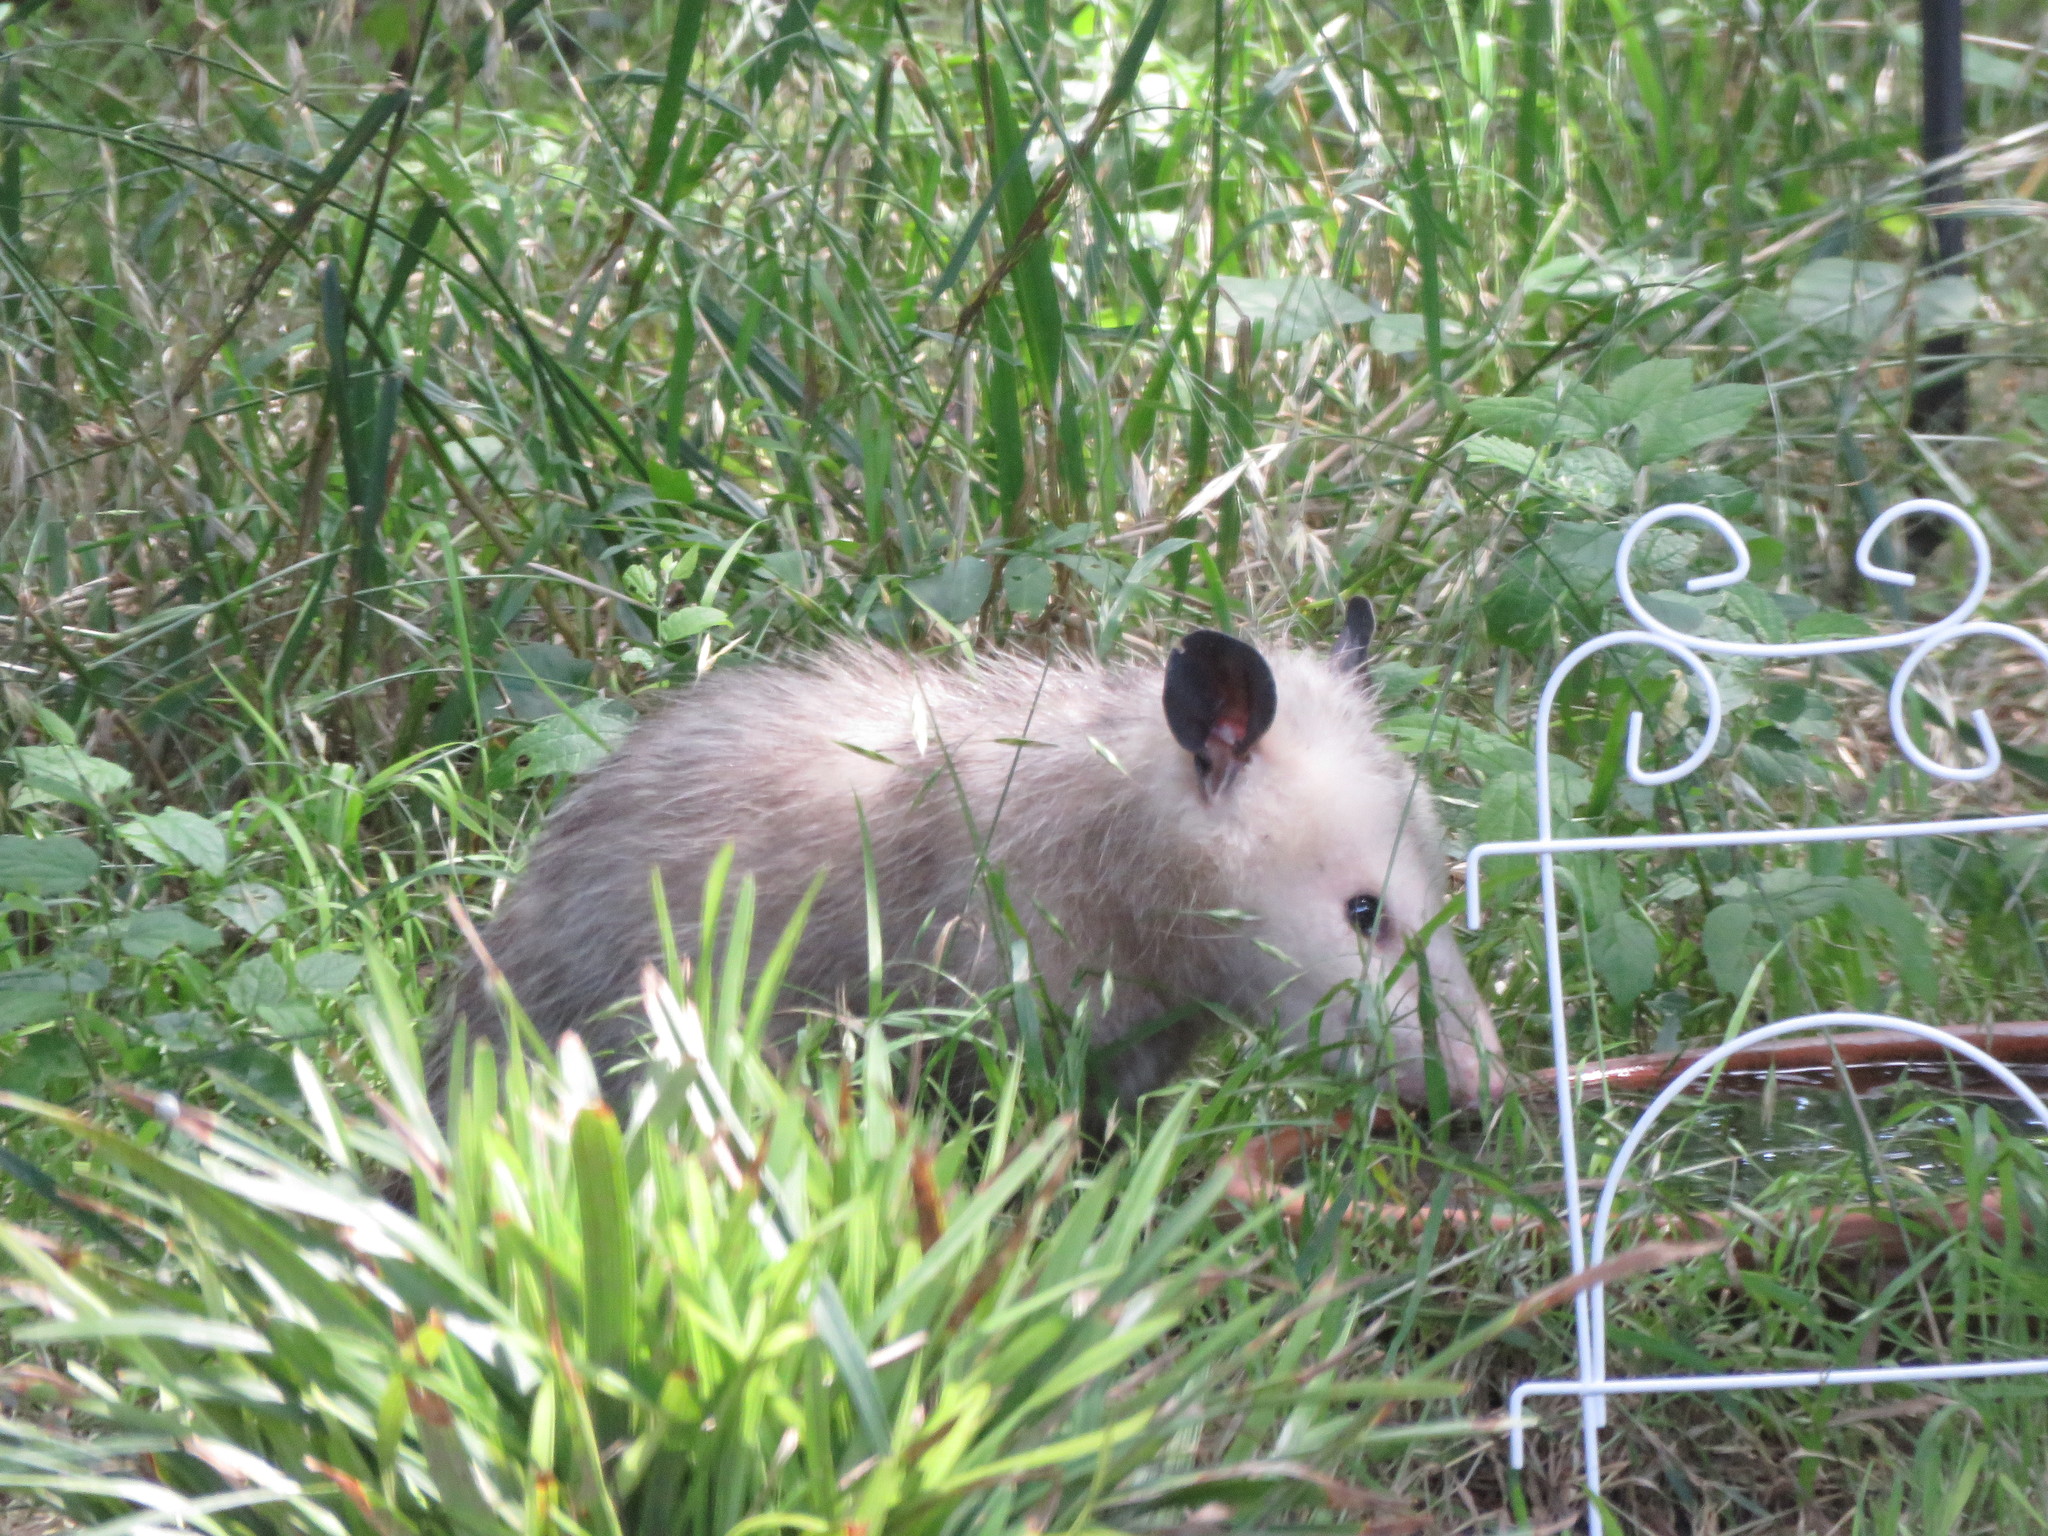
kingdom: Animalia
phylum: Chordata
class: Mammalia
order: Didelphimorphia
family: Didelphidae
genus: Didelphis
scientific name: Didelphis virginiana
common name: Virginia opossum
